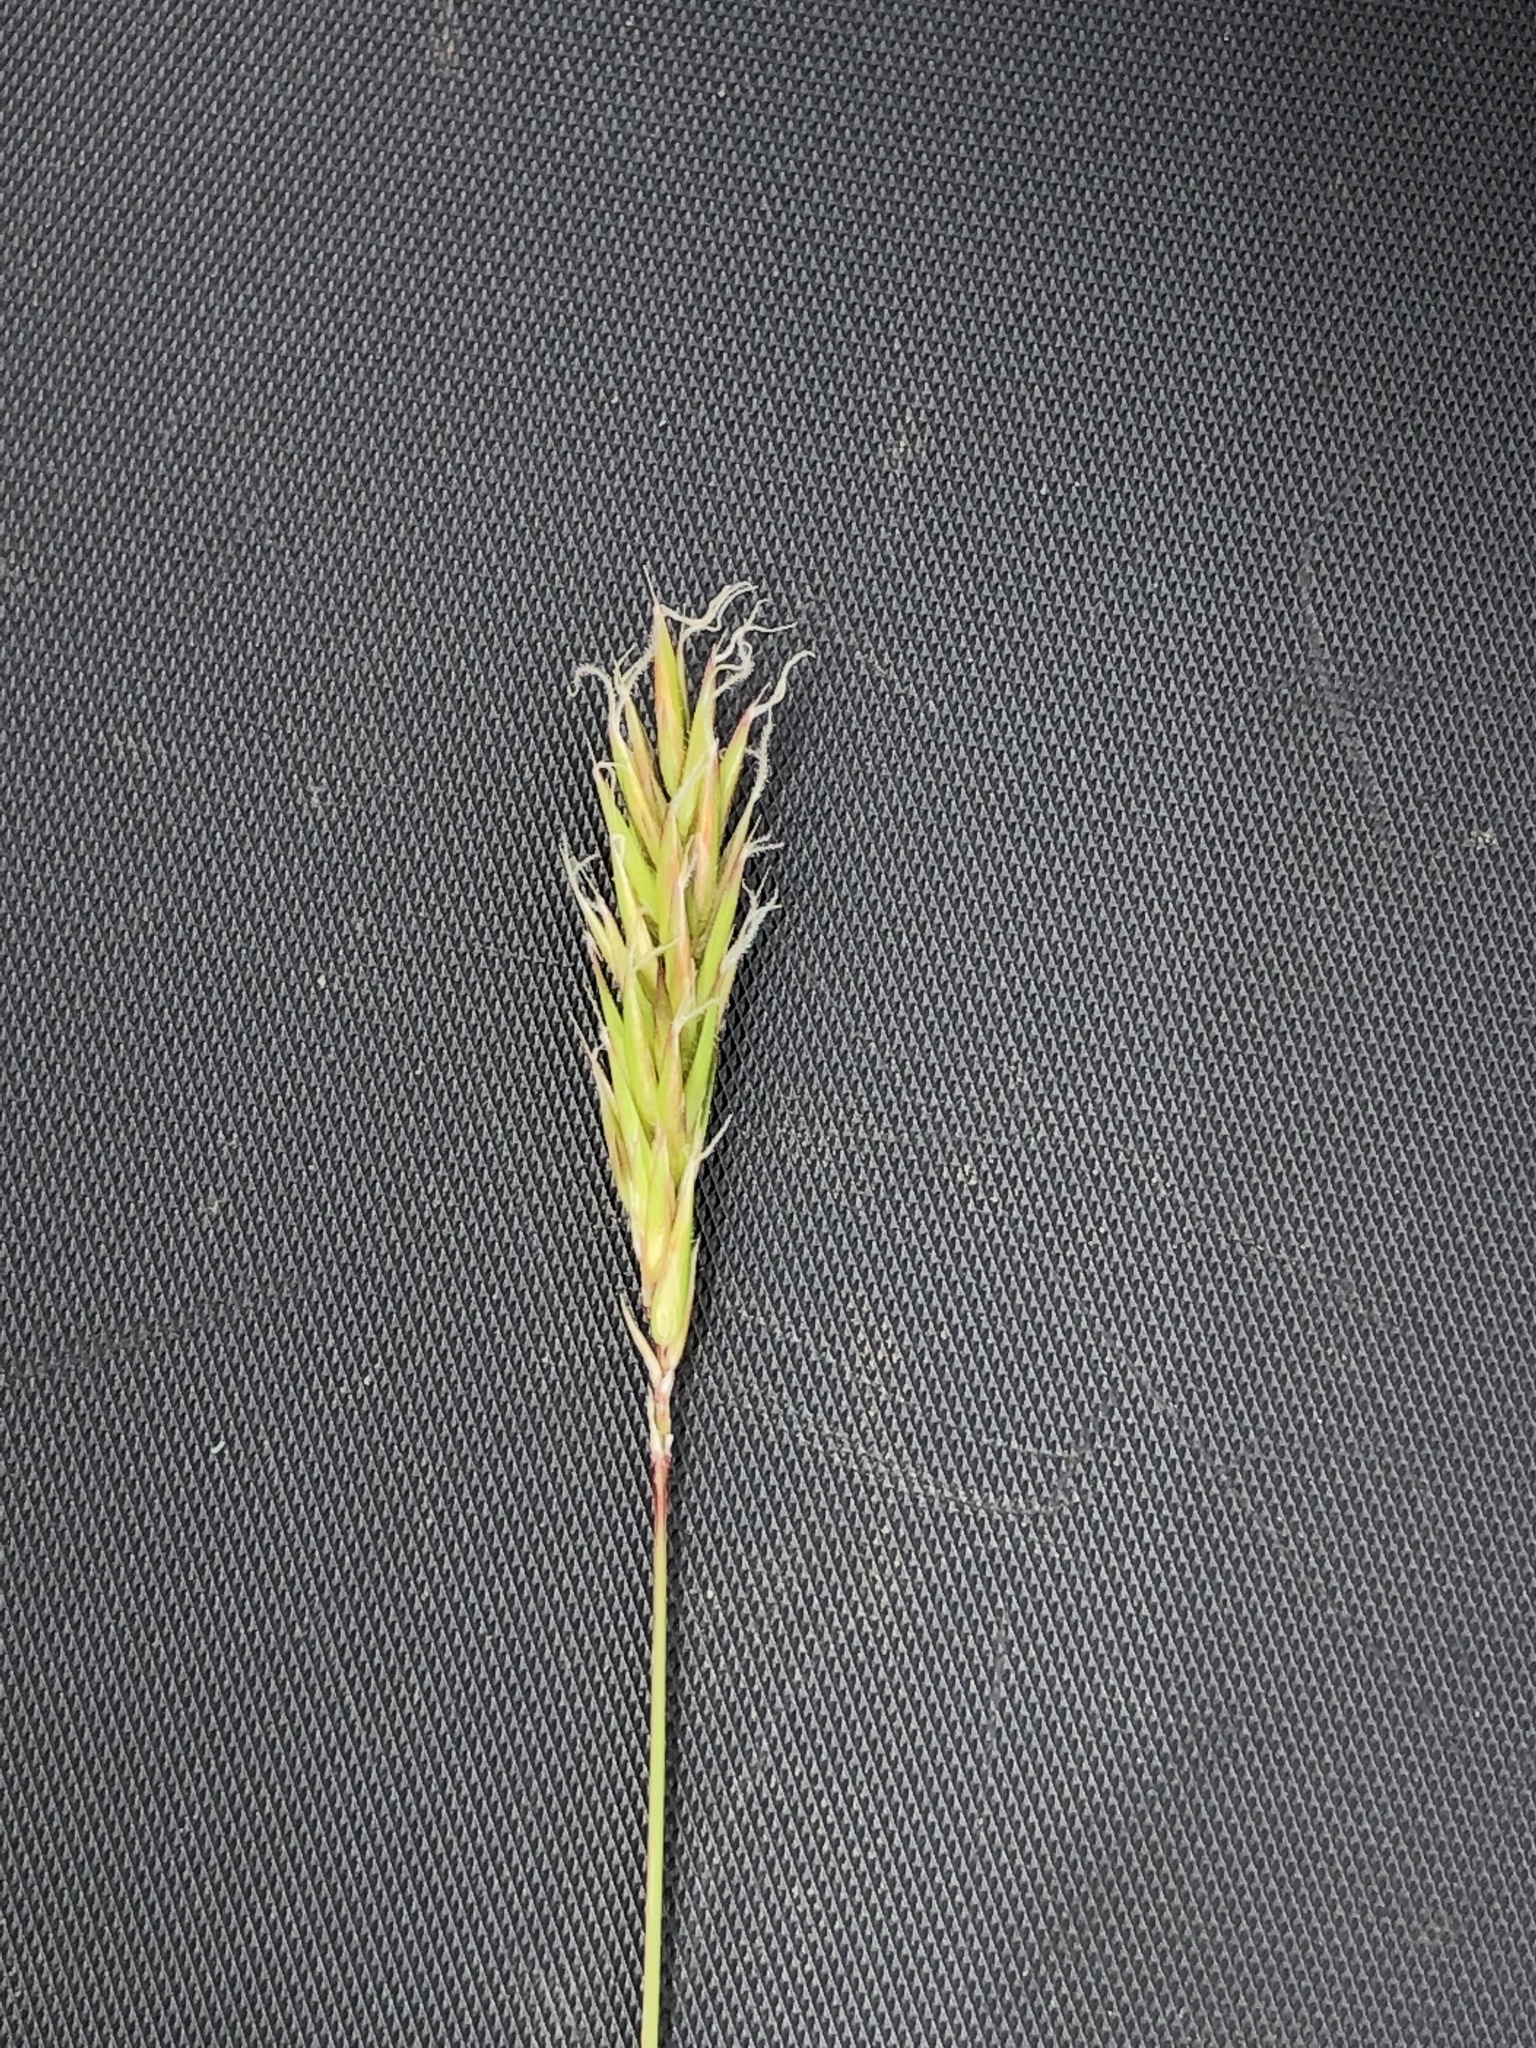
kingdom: Plantae
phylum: Tracheophyta
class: Liliopsida
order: Poales
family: Poaceae
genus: Anthoxanthum
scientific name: Anthoxanthum odoratum
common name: Sweet vernalgrass
